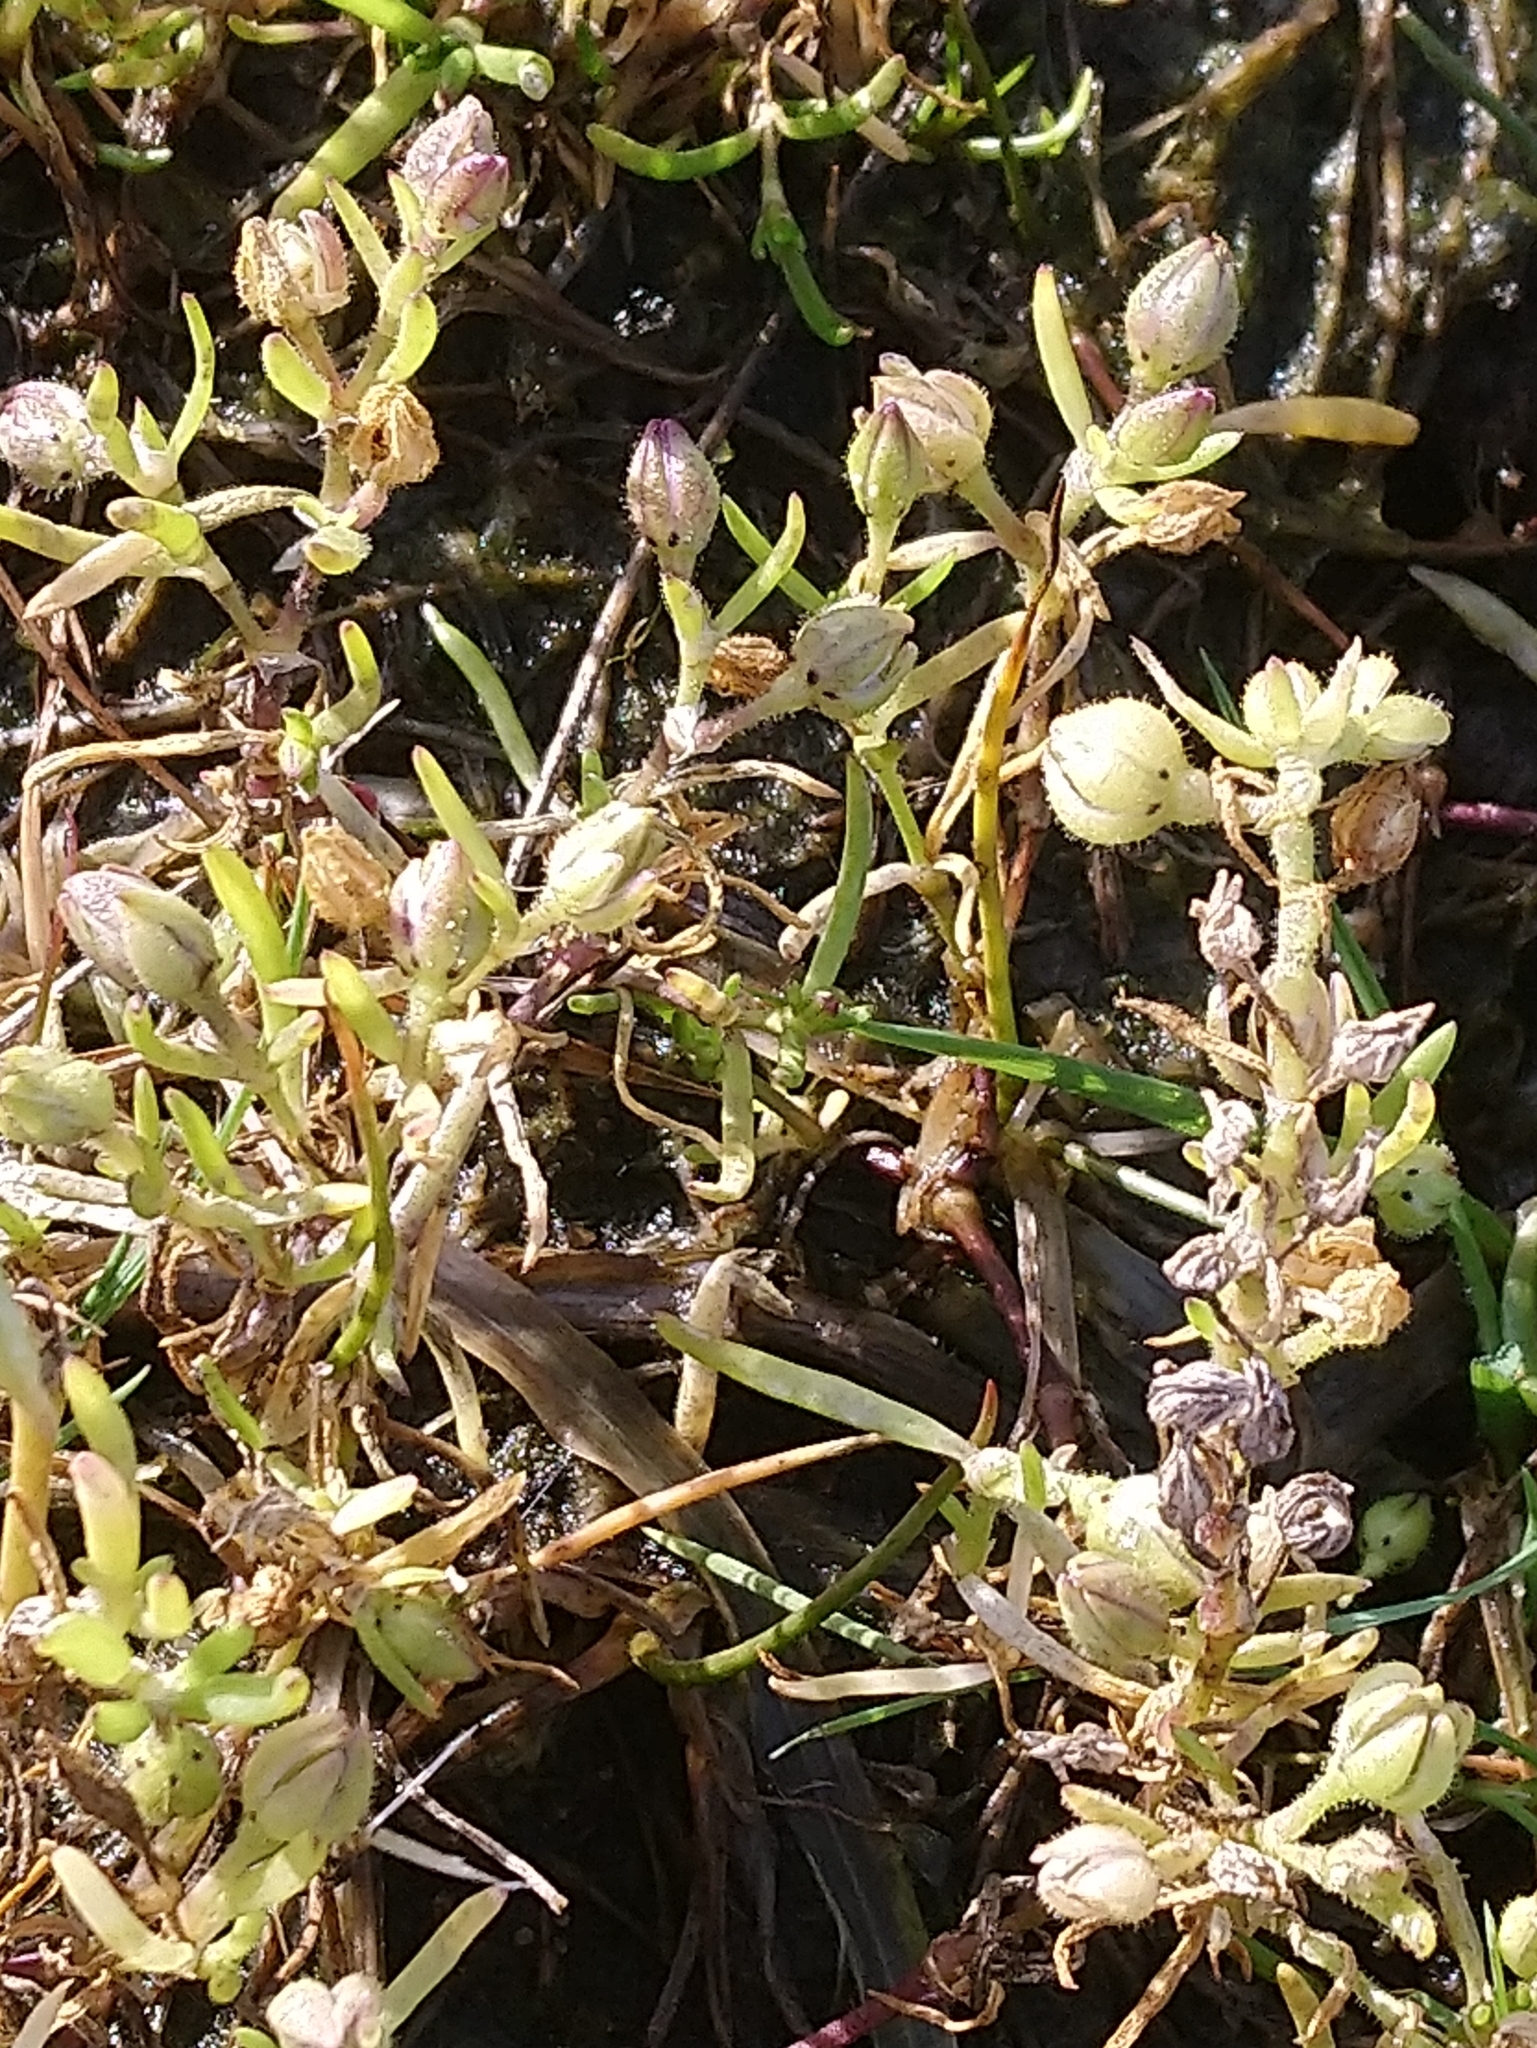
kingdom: Plantae
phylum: Tracheophyta
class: Magnoliopsida
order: Caryophyllales
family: Caryophyllaceae
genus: Spergularia
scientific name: Spergularia marina
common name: Lesser sea-spurrey
